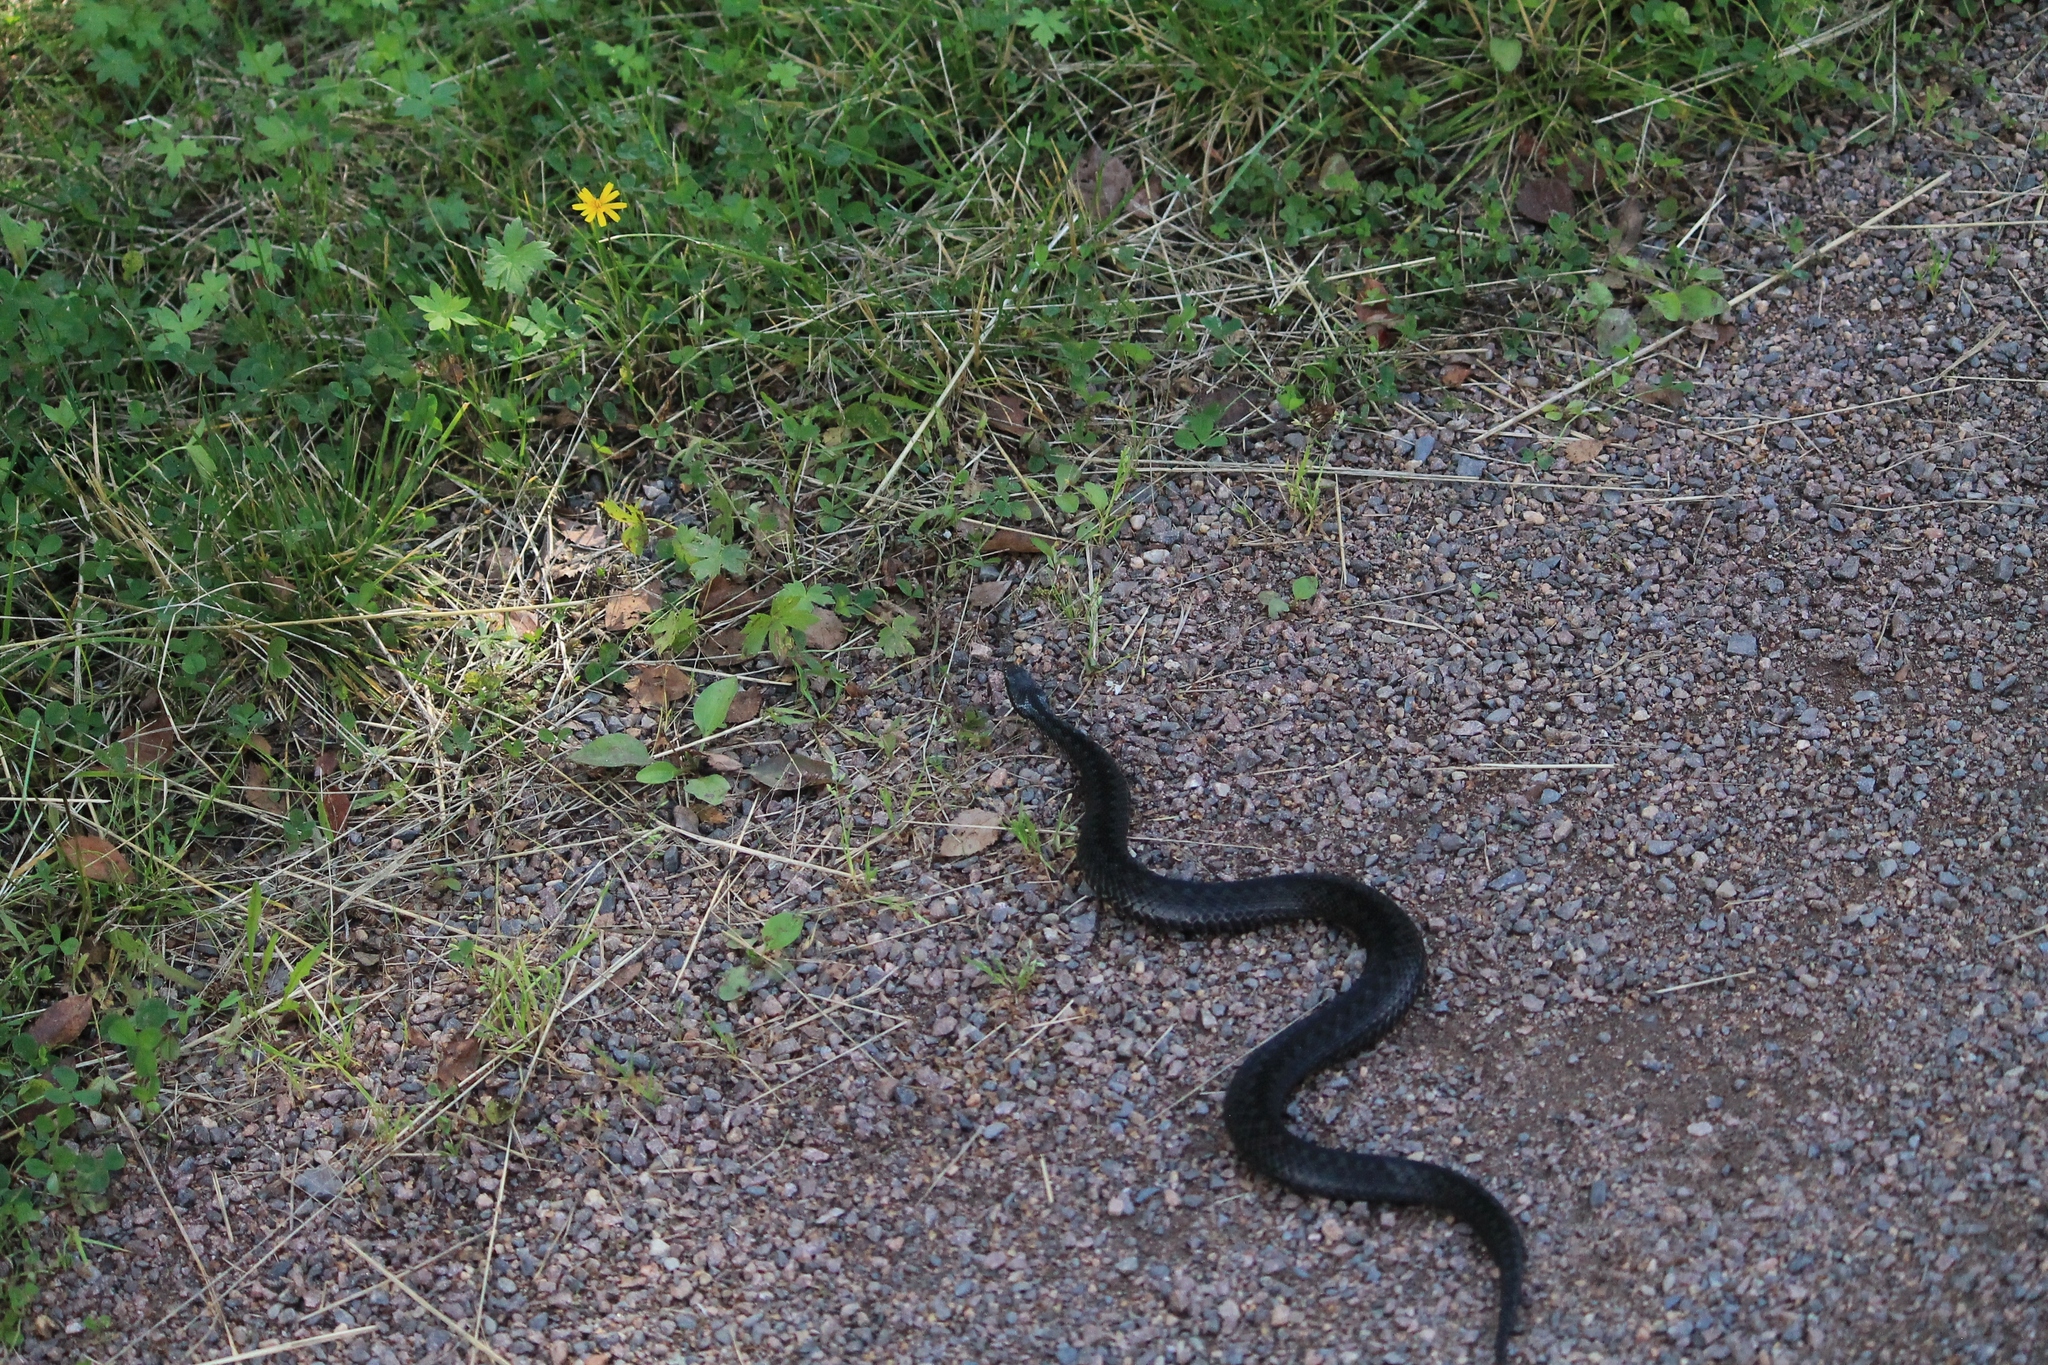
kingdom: Animalia
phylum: Chordata
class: Squamata
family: Viperidae
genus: Vipera
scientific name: Vipera berus
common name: Adder
